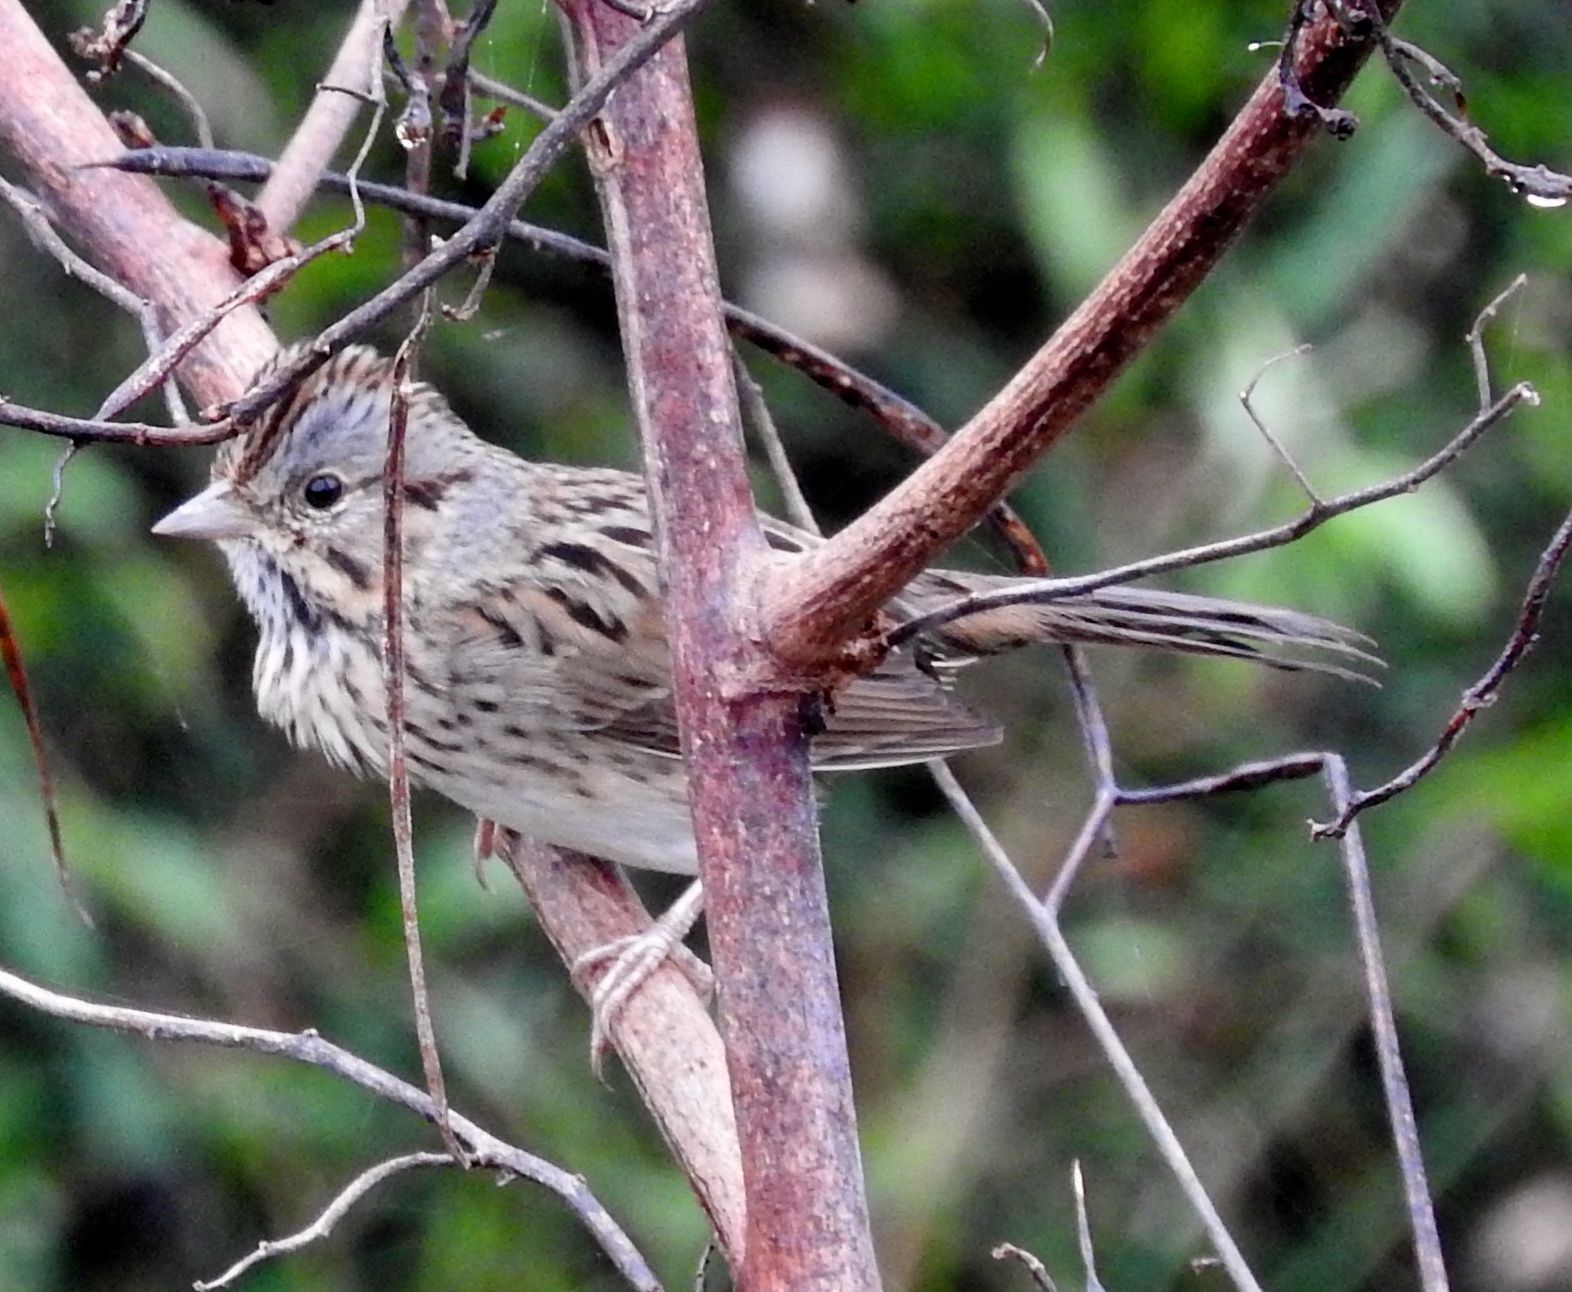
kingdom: Animalia
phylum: Chordata
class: Aves
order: Passeriformes
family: Passerellidae
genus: Melospiza
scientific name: Melospiza lincolnii
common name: Lincoln's sparrow
